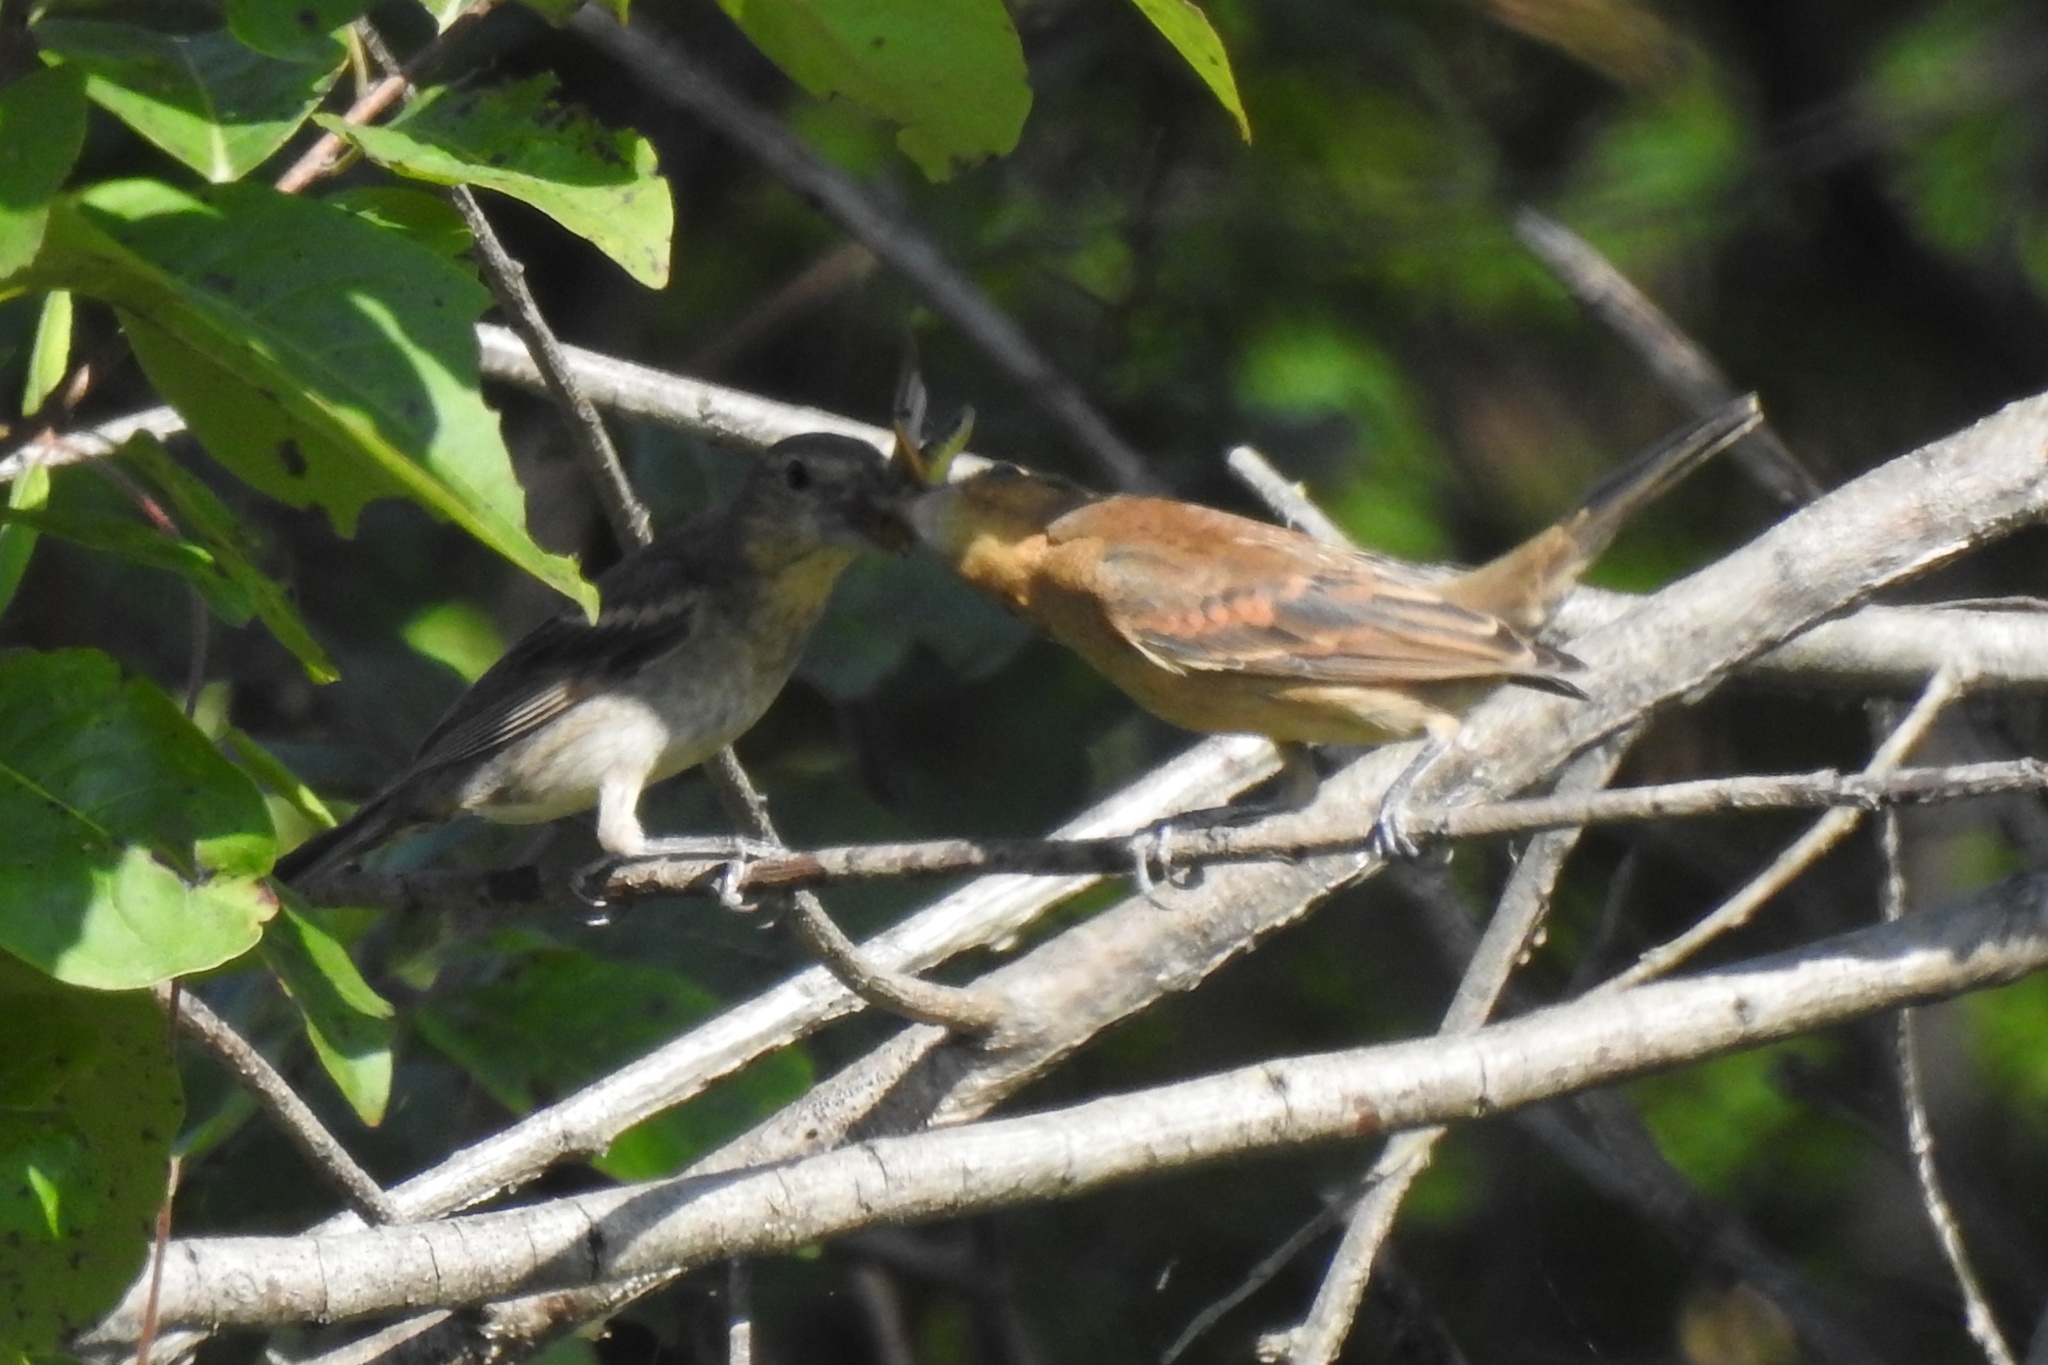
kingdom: Animalia
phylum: Chordata
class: Aves
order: Passeriformes
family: Cardinalidae
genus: Passerina
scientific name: Passerina caerulea
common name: Blue grosbeak
